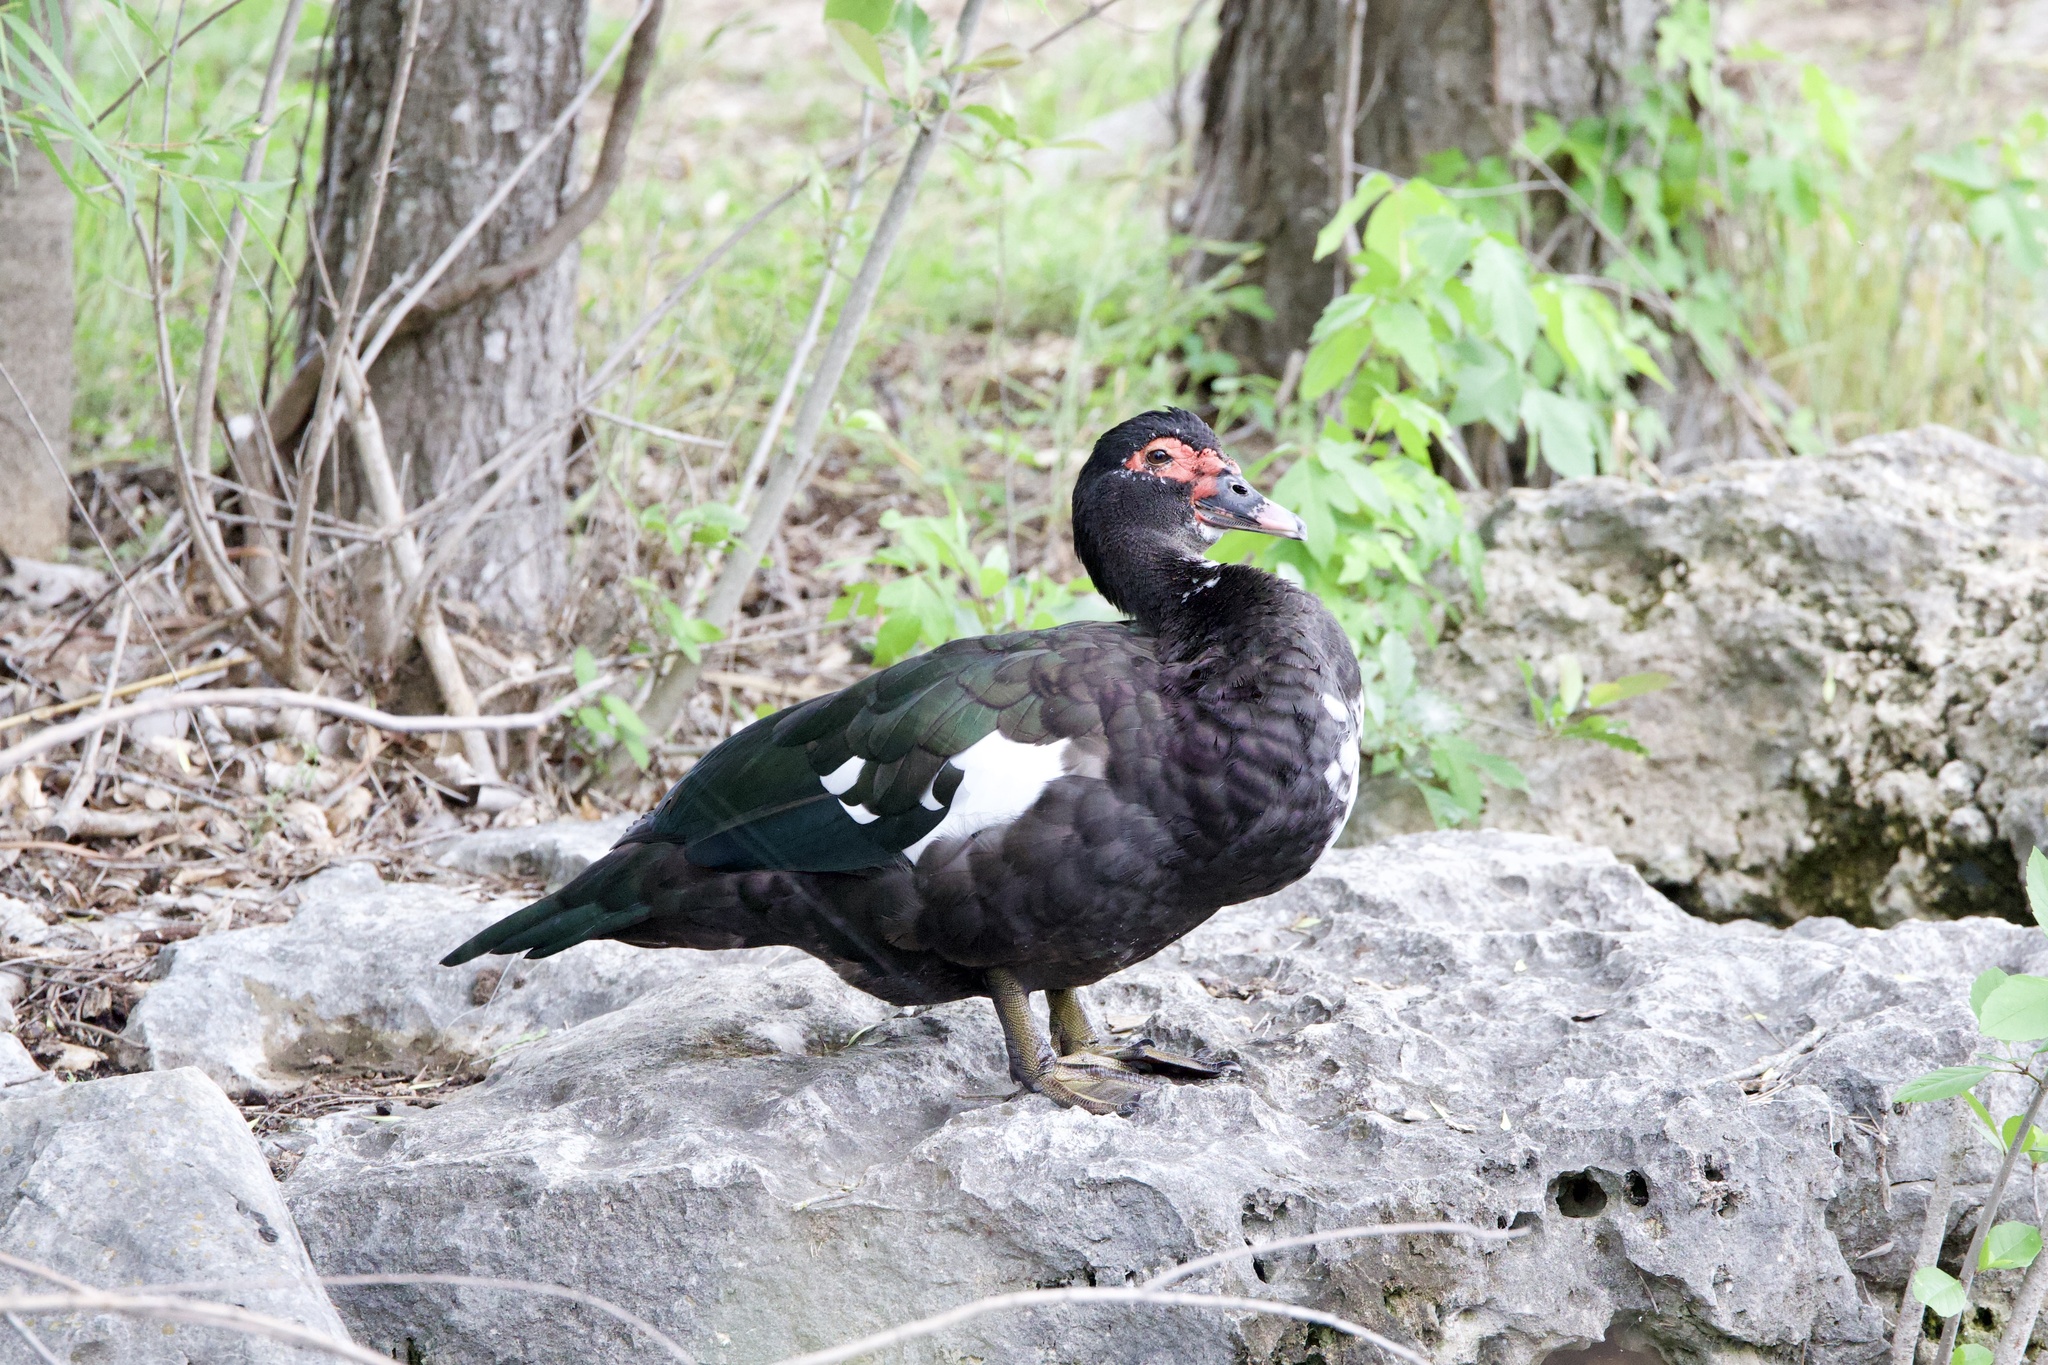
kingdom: Animalia
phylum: Chordata
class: Aves
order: Anseriformes
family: Anatidae
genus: Cairina
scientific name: Cairina moschata
